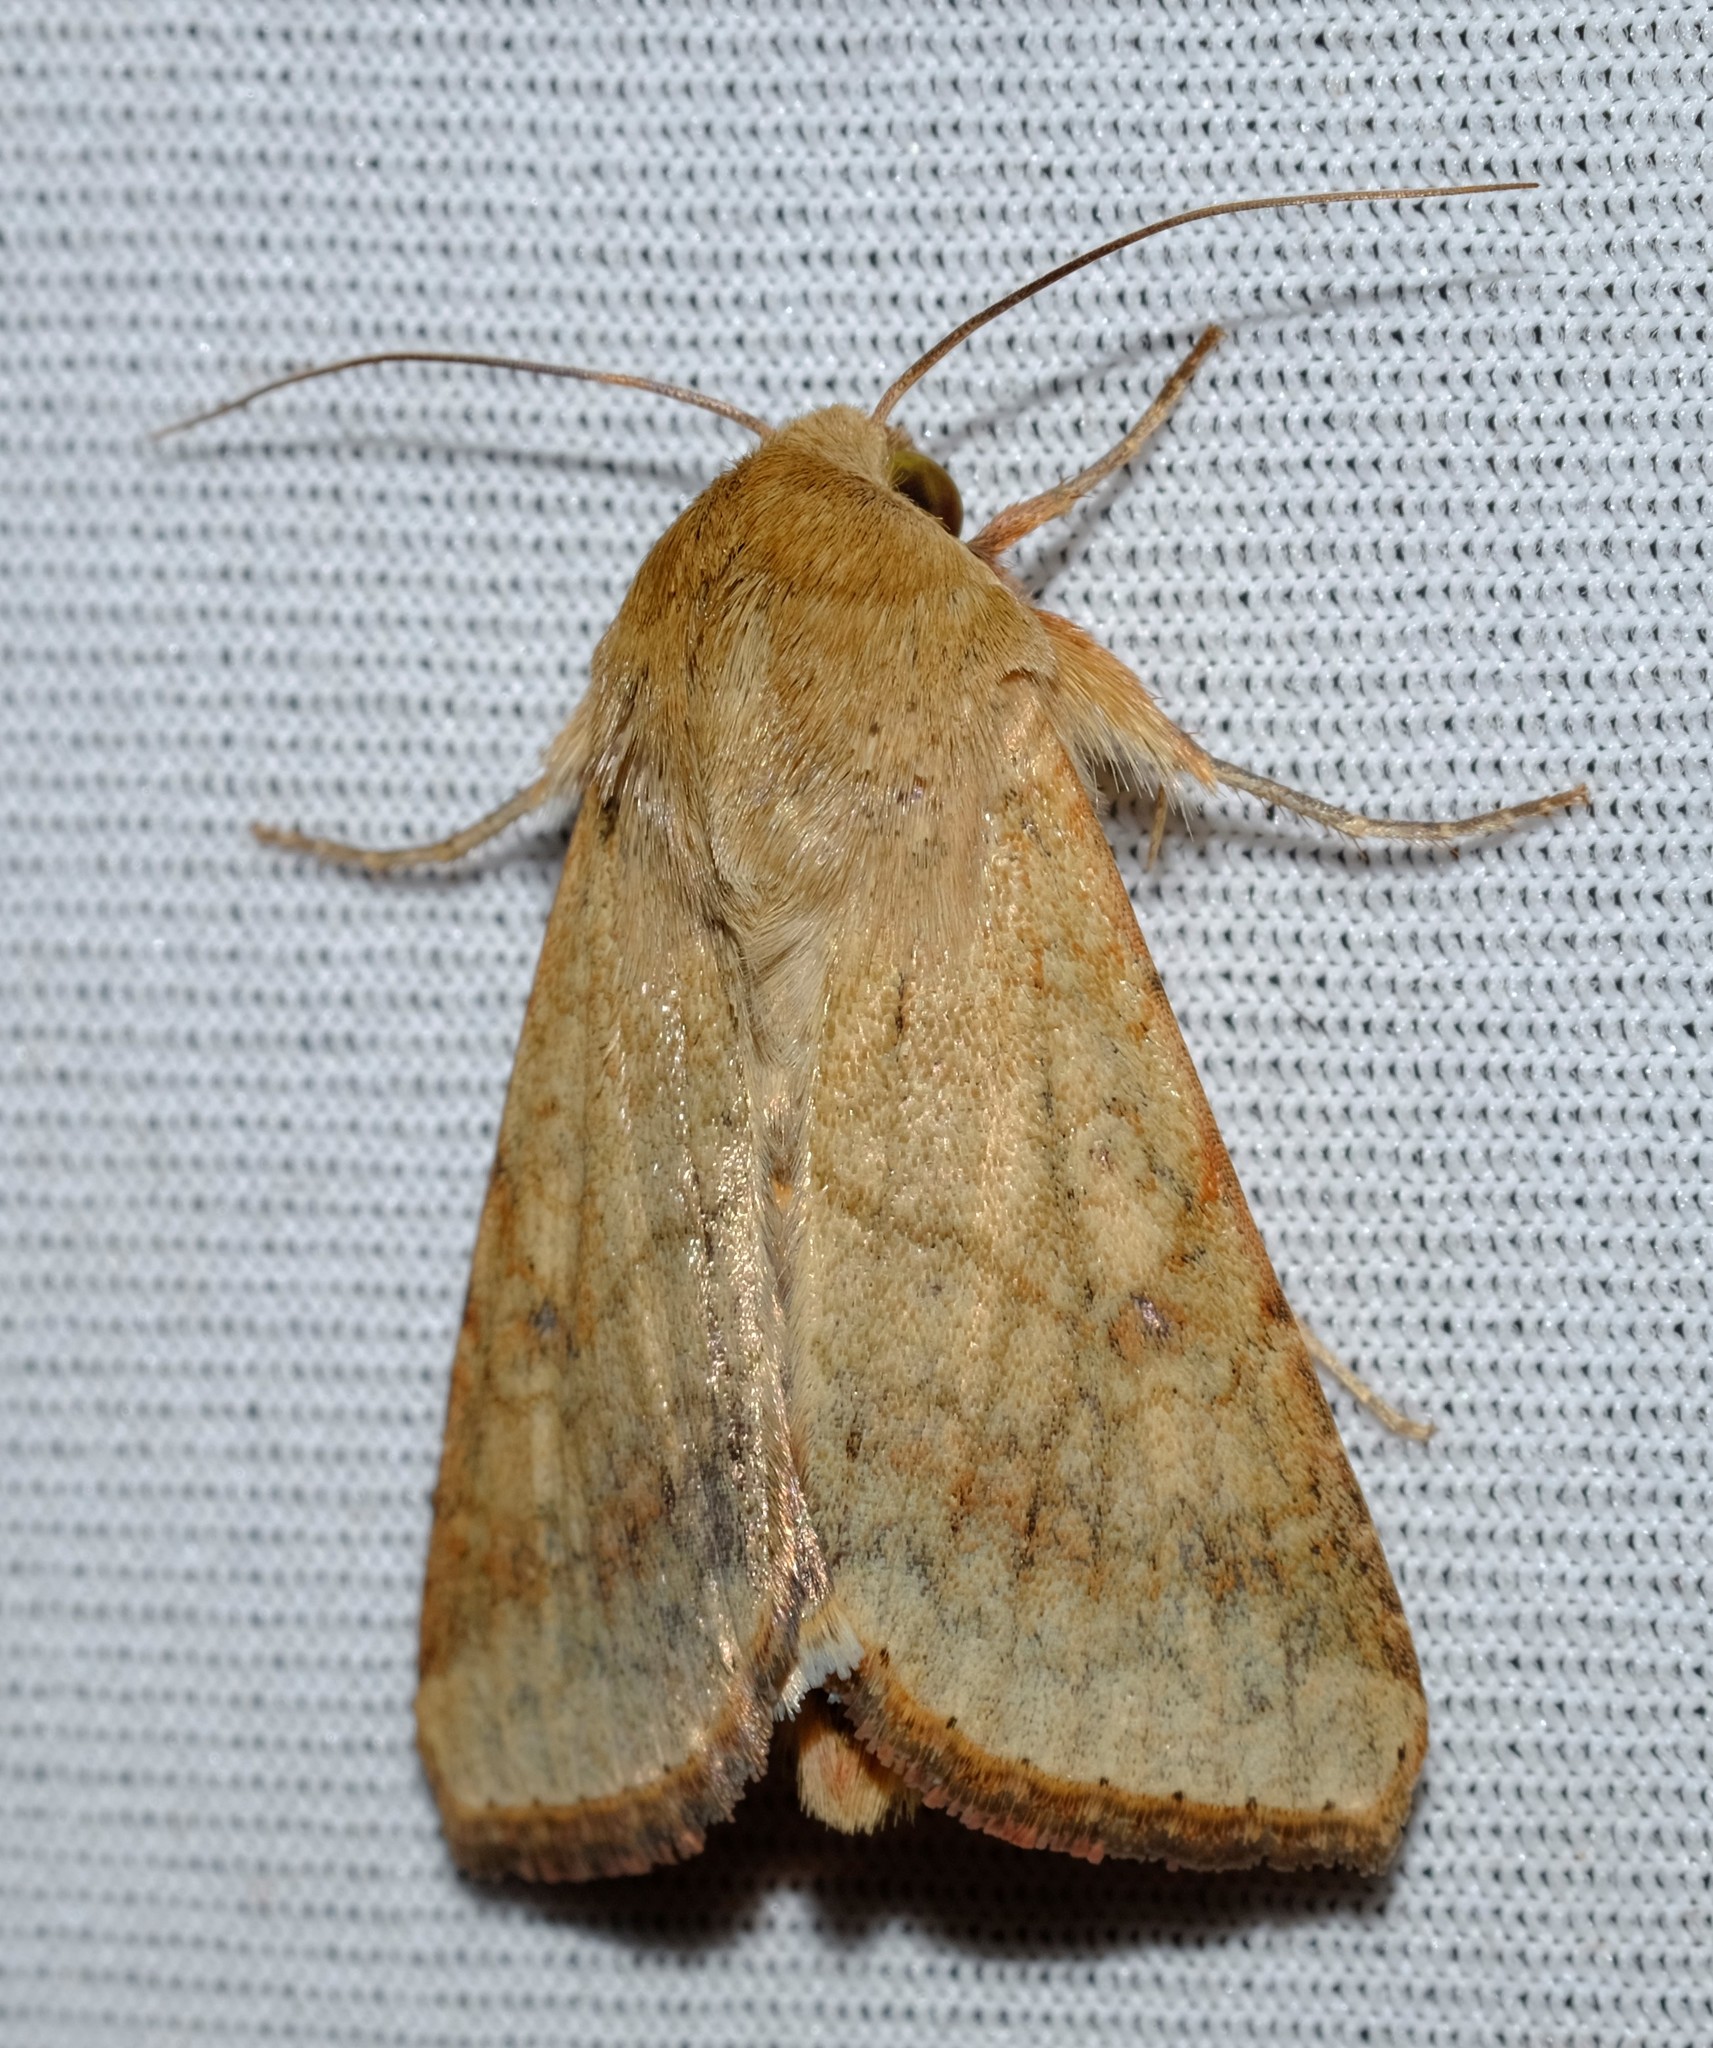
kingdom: Animalia
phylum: Arthropoda
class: Insecta
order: Lepidoptera
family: Noctuidae
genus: Australothis
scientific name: Australothis rubrescens
